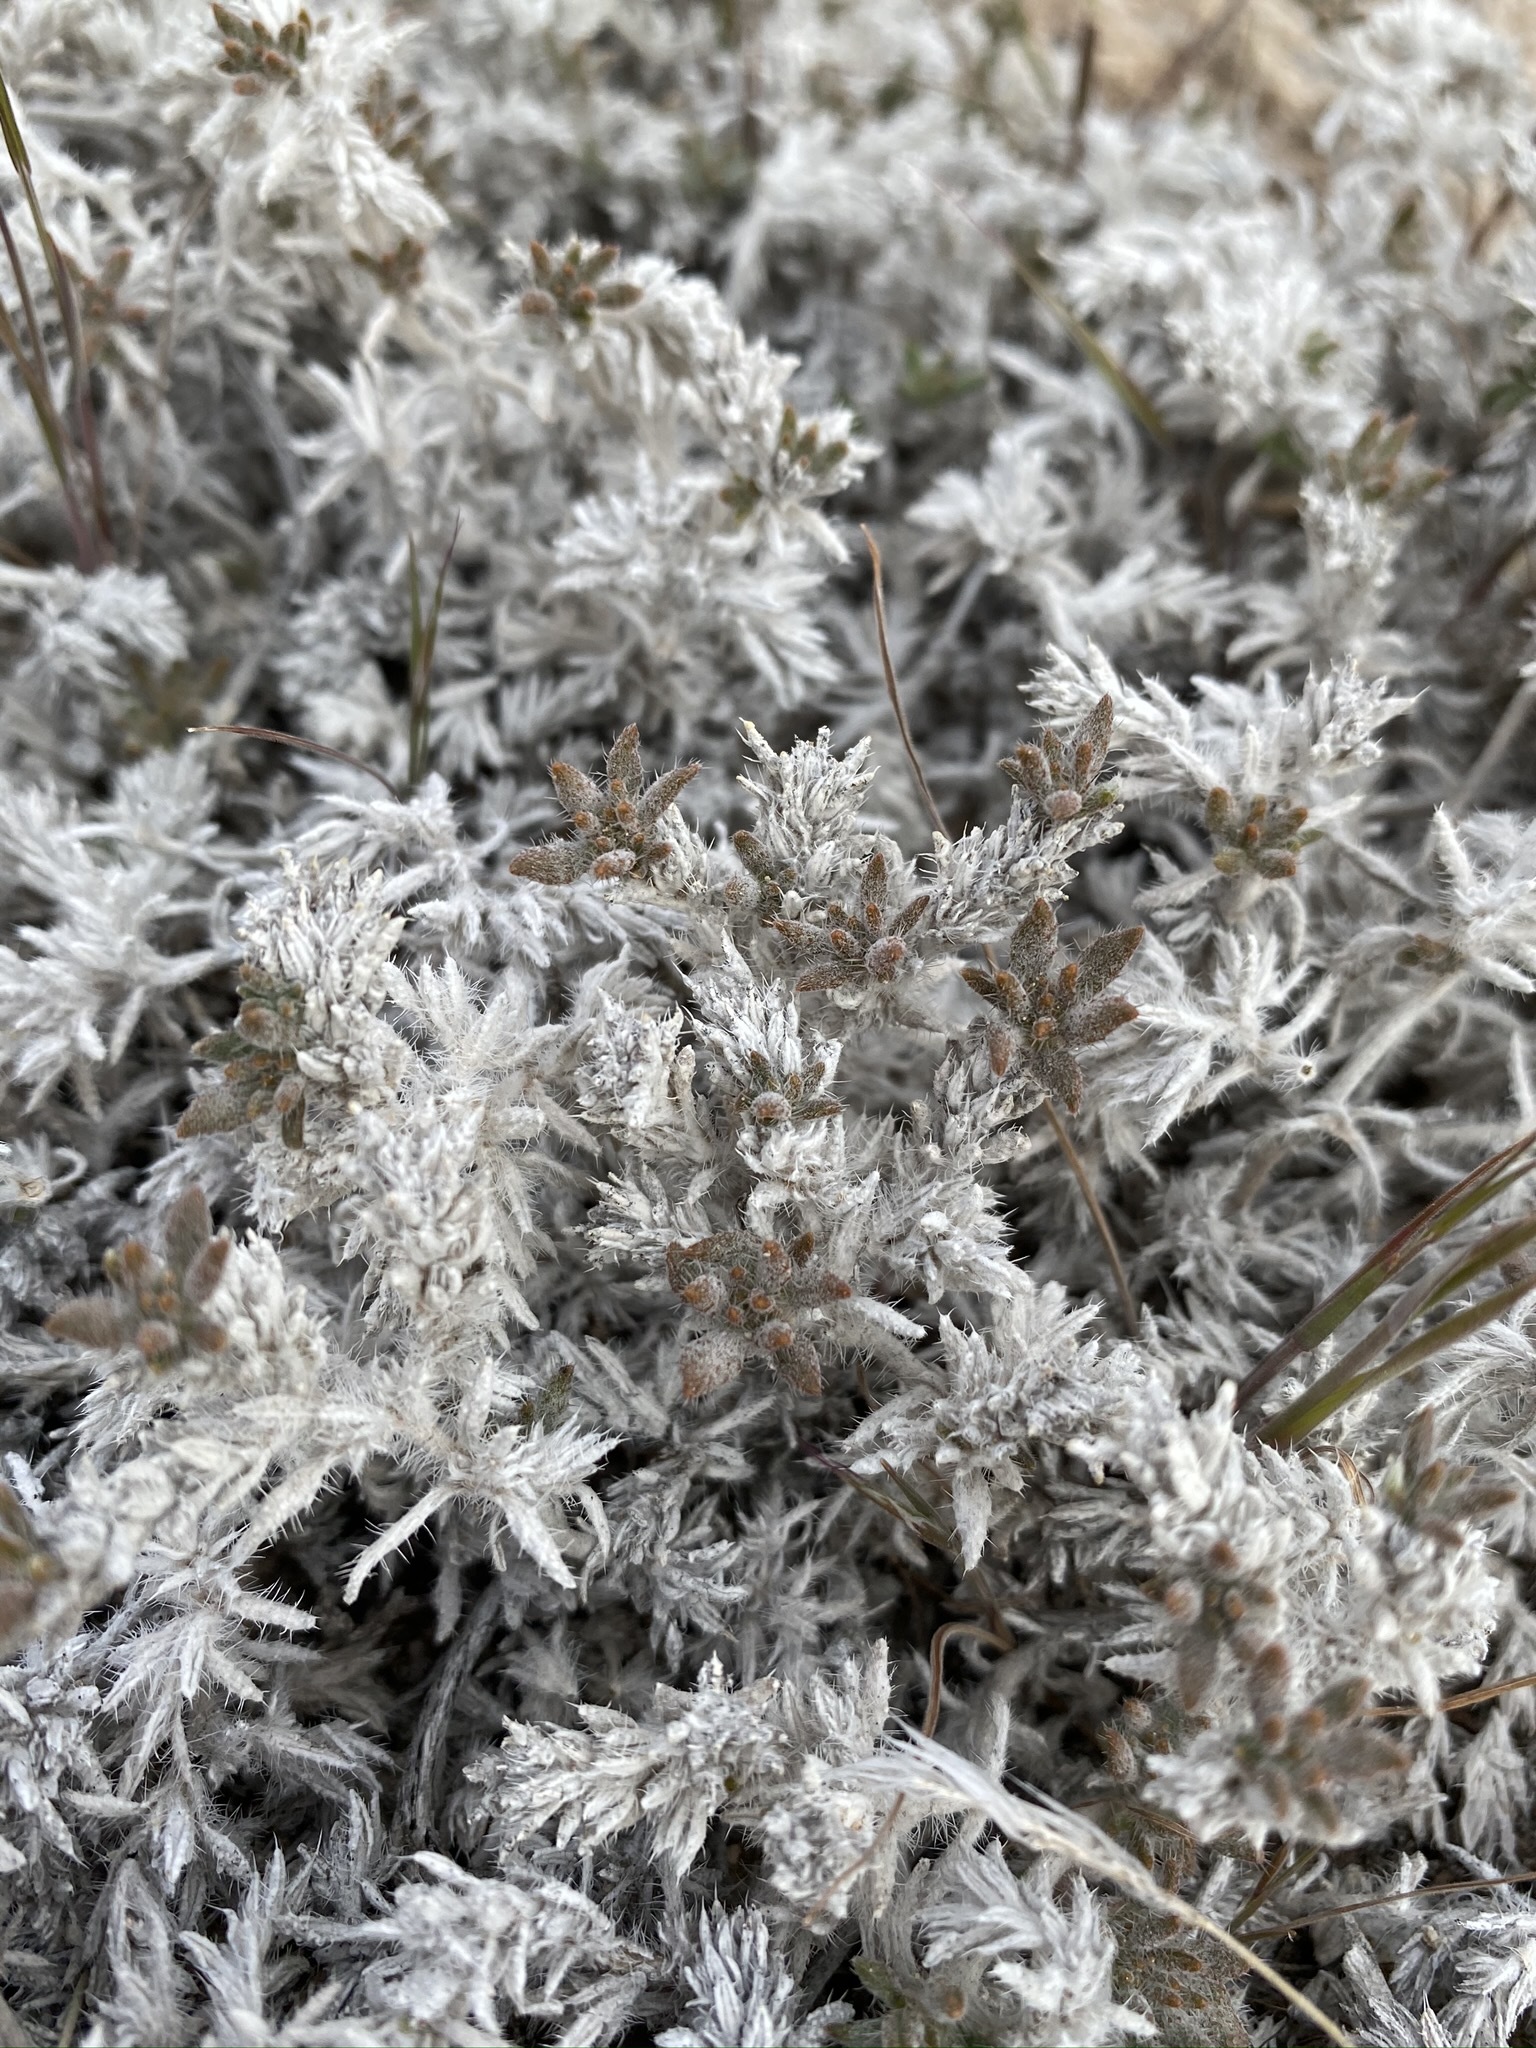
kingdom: Plantae
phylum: Tracheophyta
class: Magnoliopsida
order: Boraginales
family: Ehretiaceae
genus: Tiquilia
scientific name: Tiquilia latior
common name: Matted tiquilia
